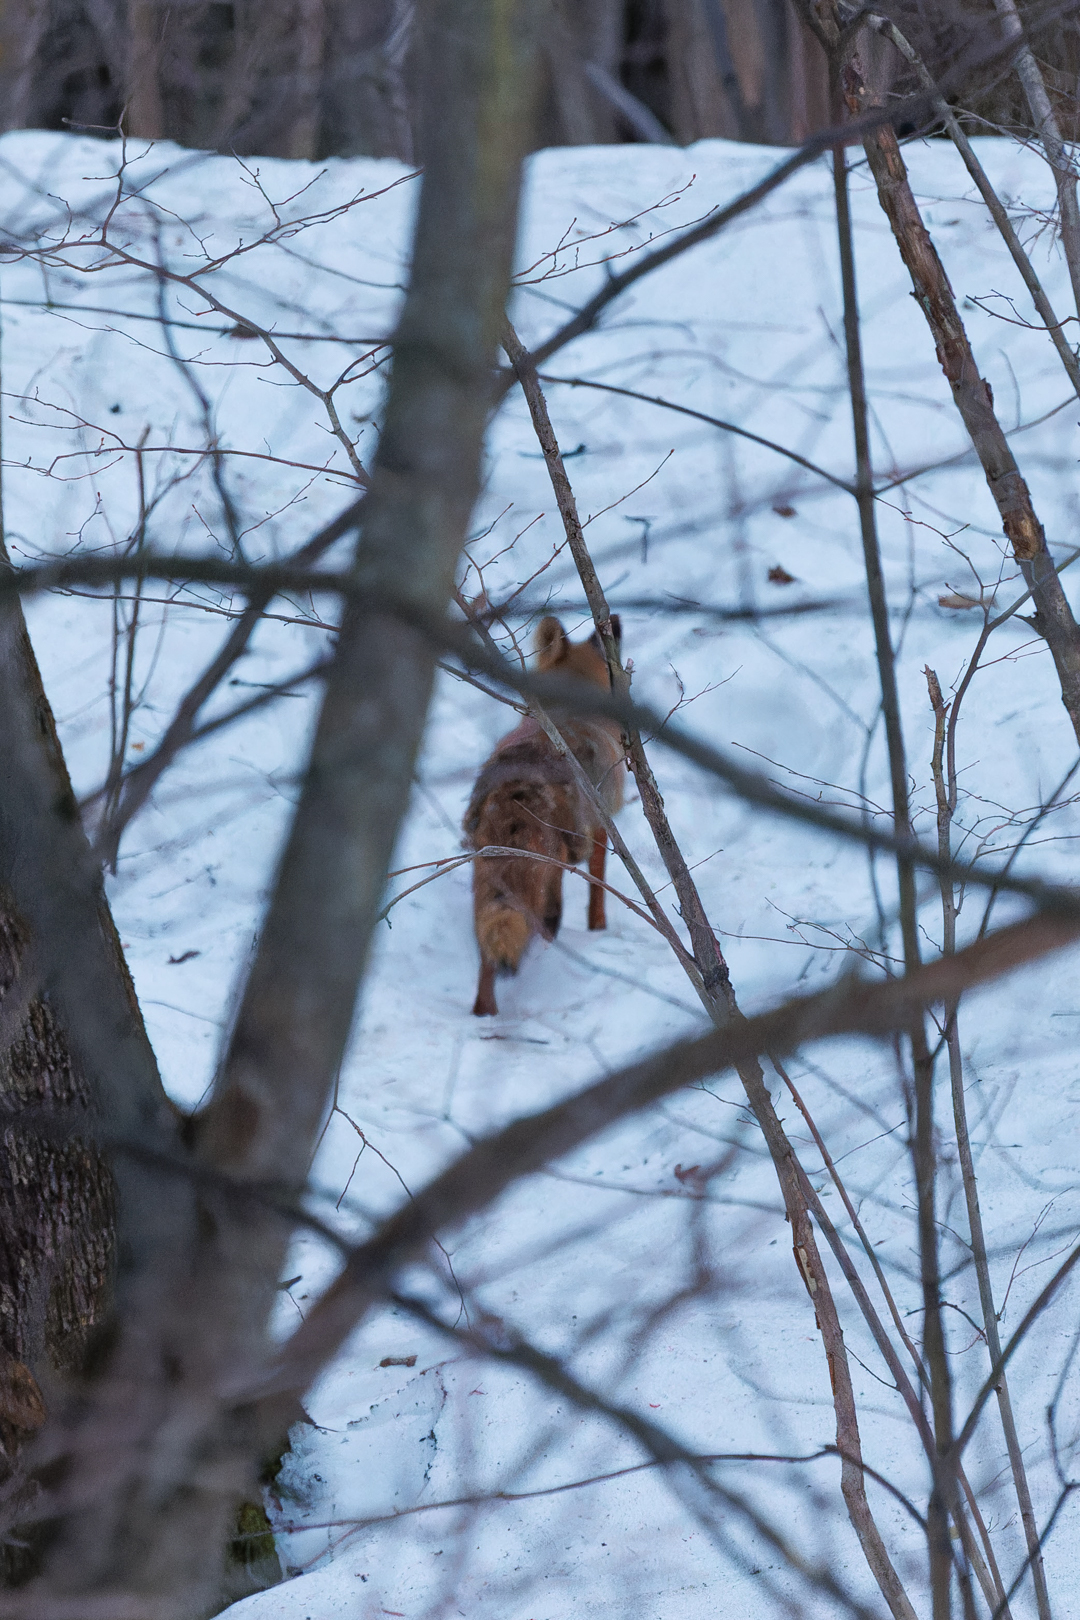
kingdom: Animalia
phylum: Chordata
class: Mammalia
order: Carnivora
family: Canidae
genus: Vulpes
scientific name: Vulpes vulpes
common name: Red fox
